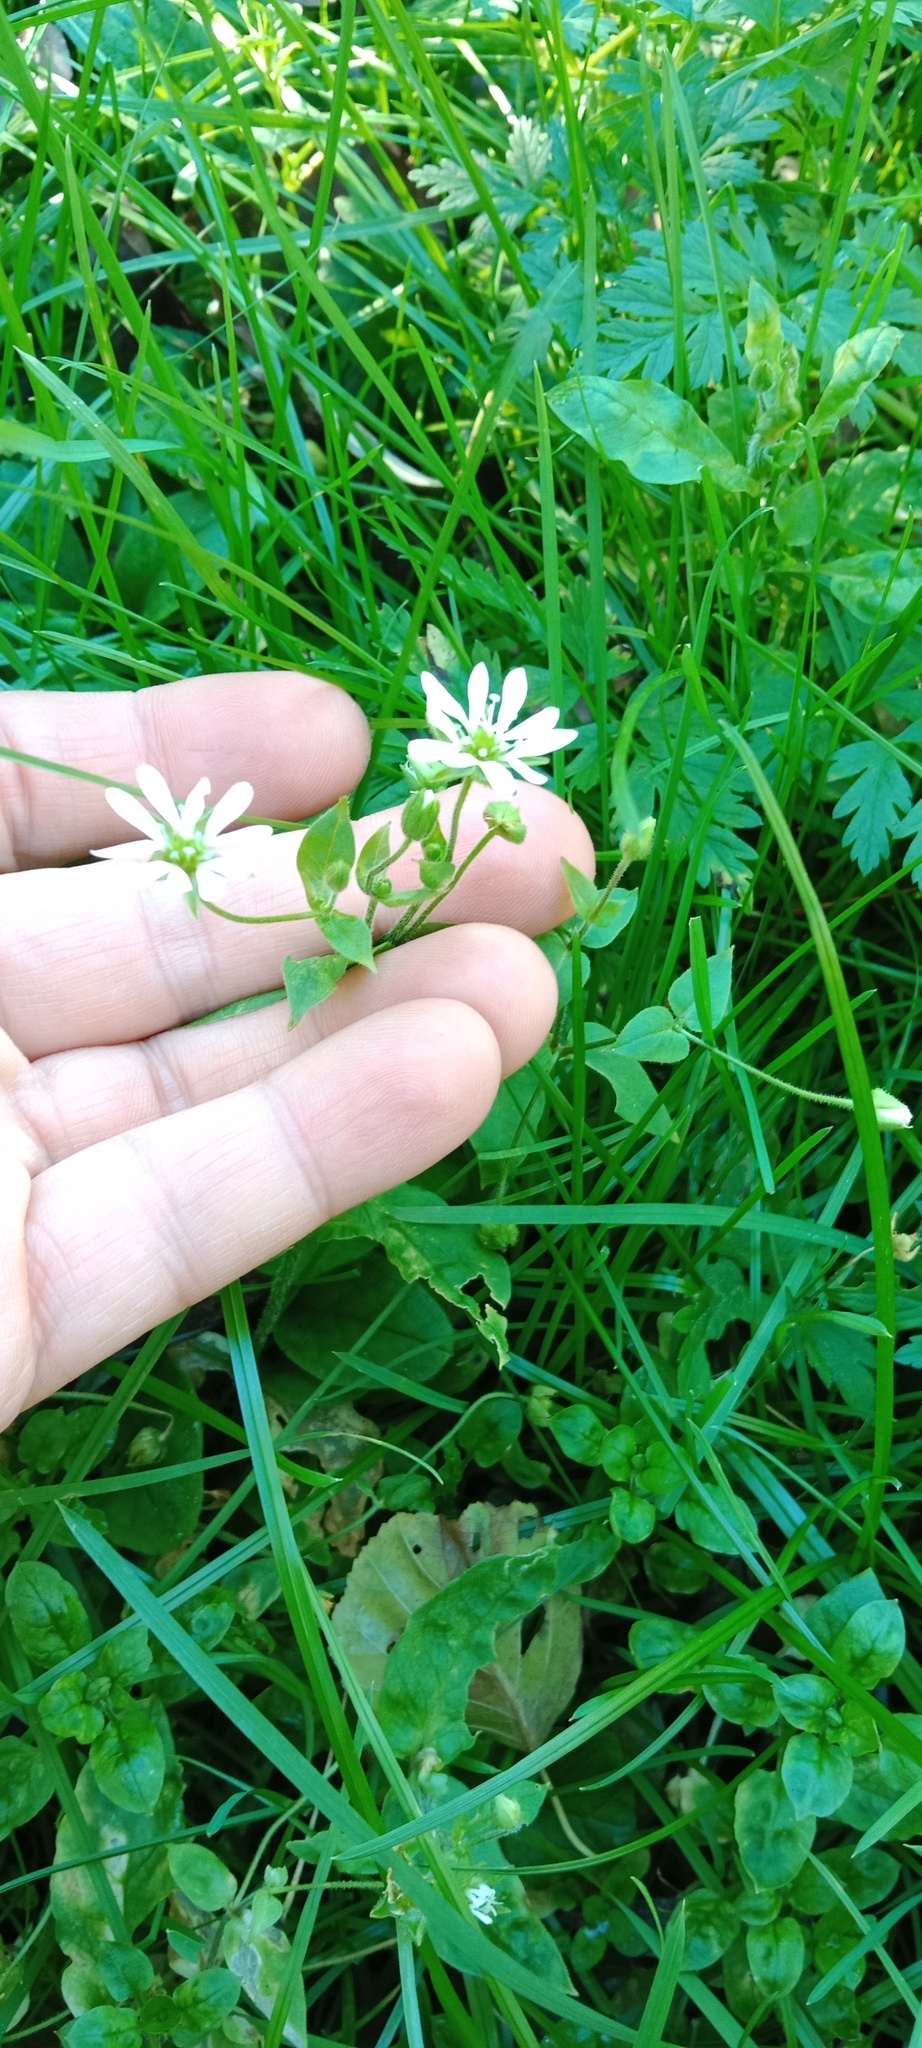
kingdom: Plantae
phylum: Tracheophyta
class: Magnoliopsida
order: Caryophyllales
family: Caryophyllaceae
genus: Stellaria
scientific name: Stellaria aquatica
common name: Water chickweed
